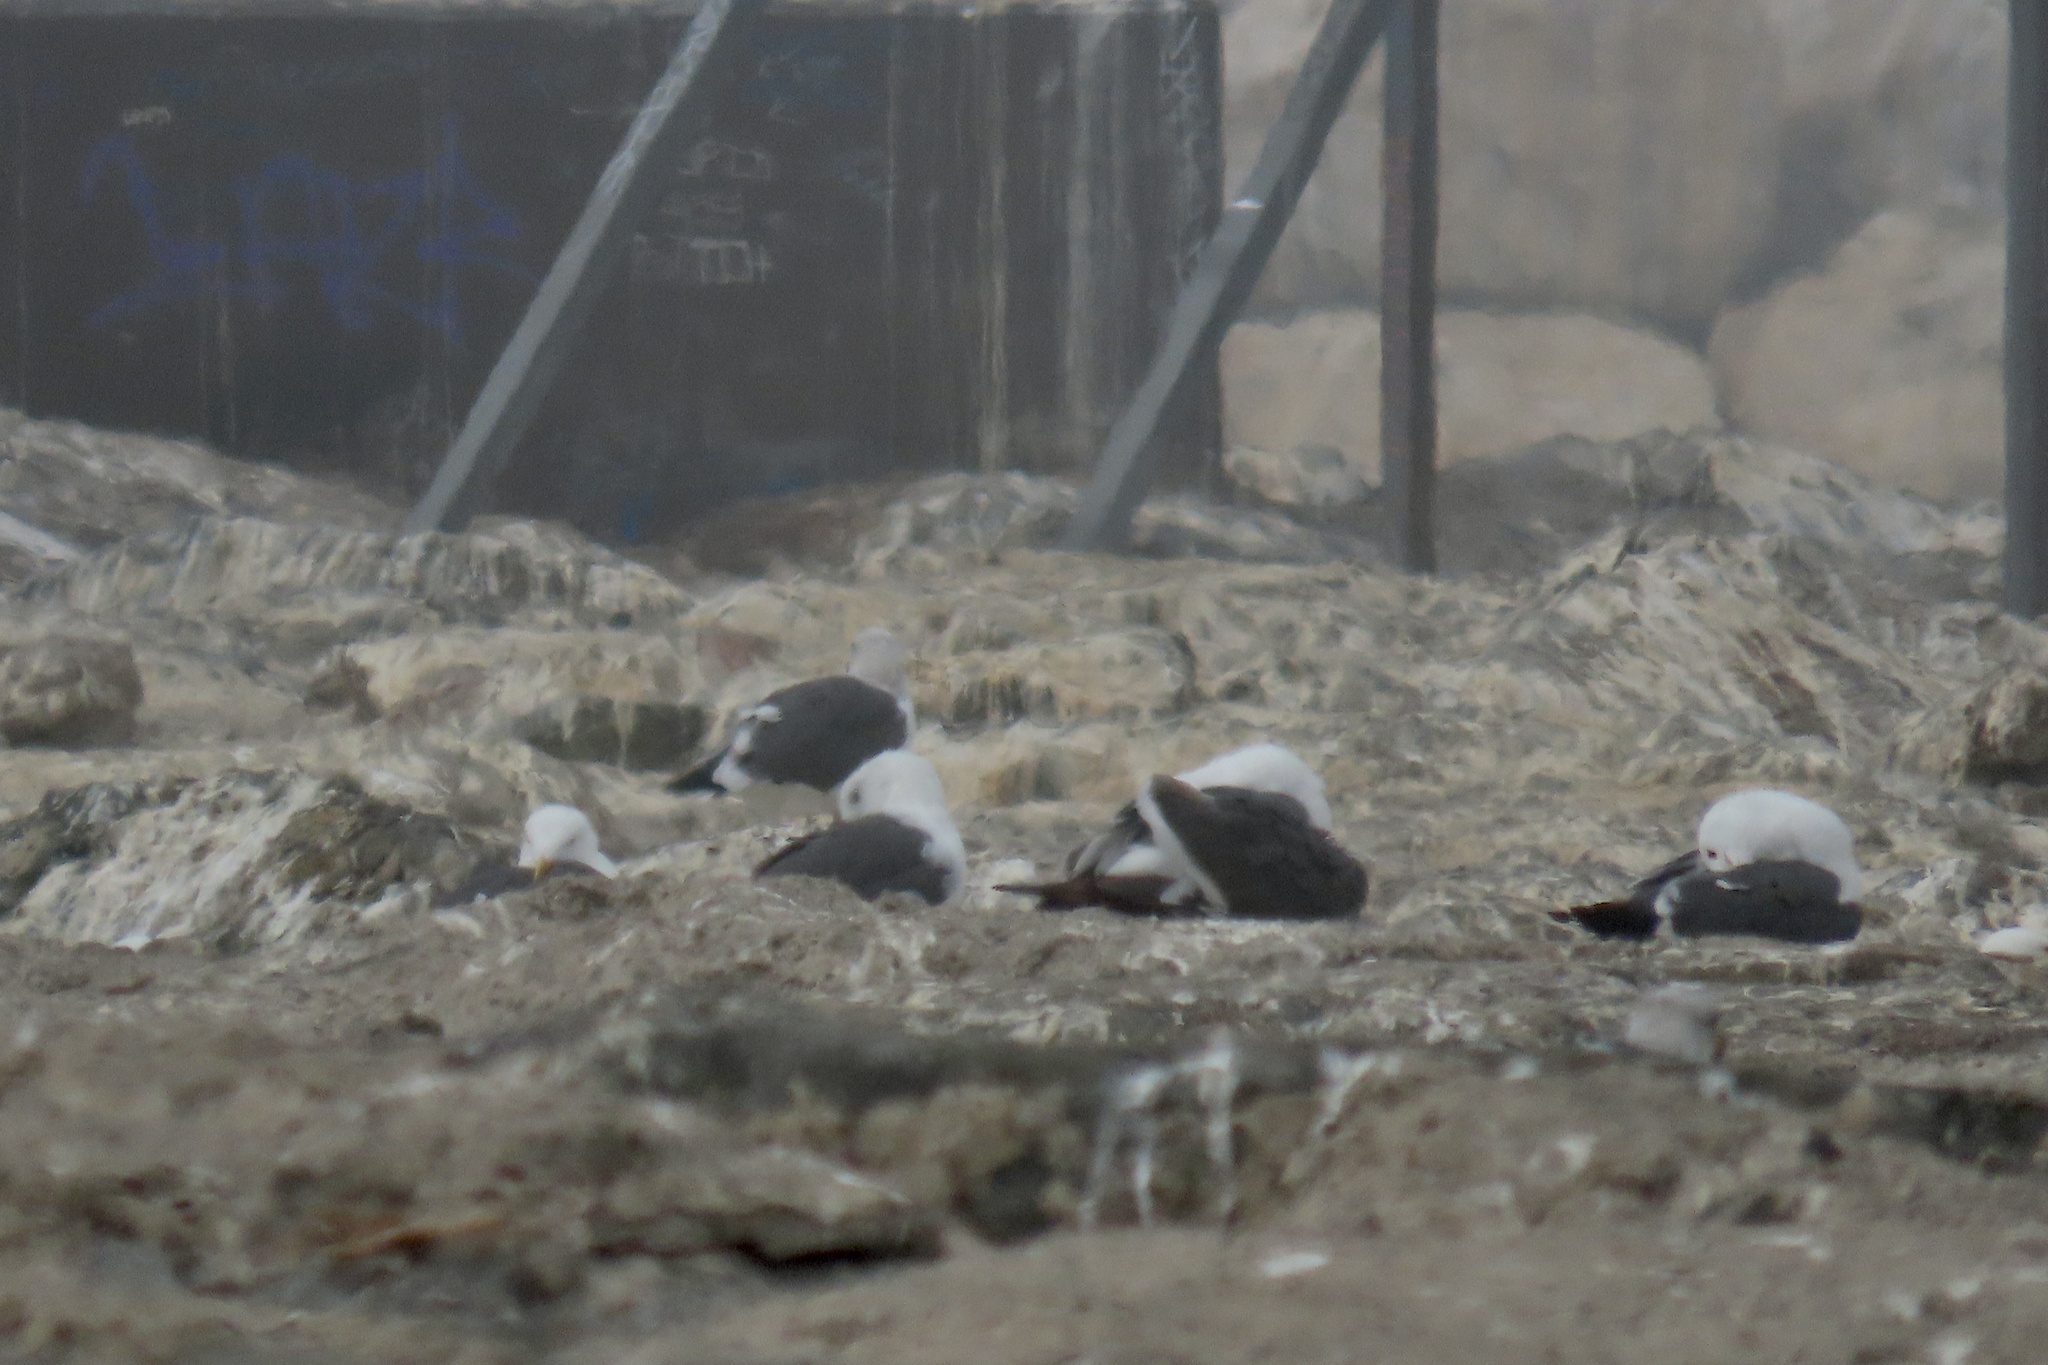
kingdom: Animalia
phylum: Chordata
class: Aves
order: Charadriiformes
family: Laridae
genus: Larus
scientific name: Larus occidentalis
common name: Western gull
